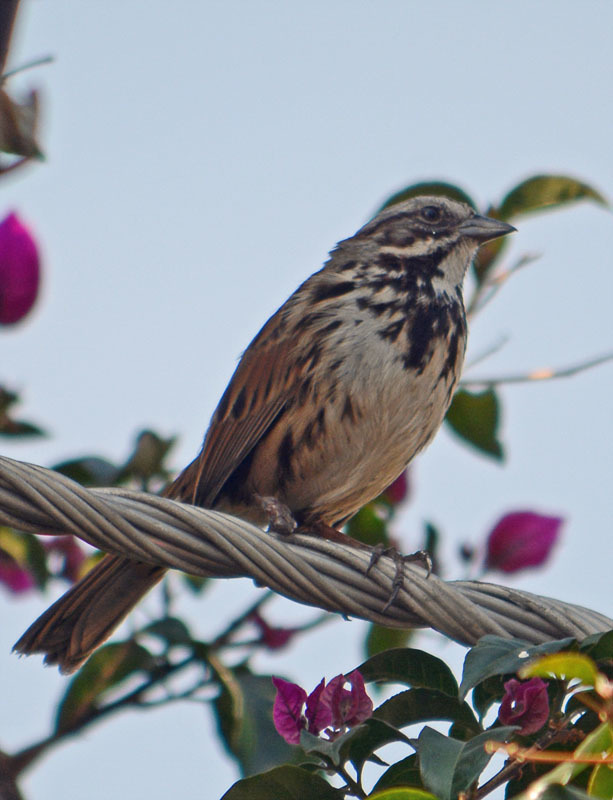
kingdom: Animalia
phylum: Chordata
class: Aves
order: Passeriformes
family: Passerellidae
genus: Melospiza
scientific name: Melospiza melodia
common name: Song sparrow
